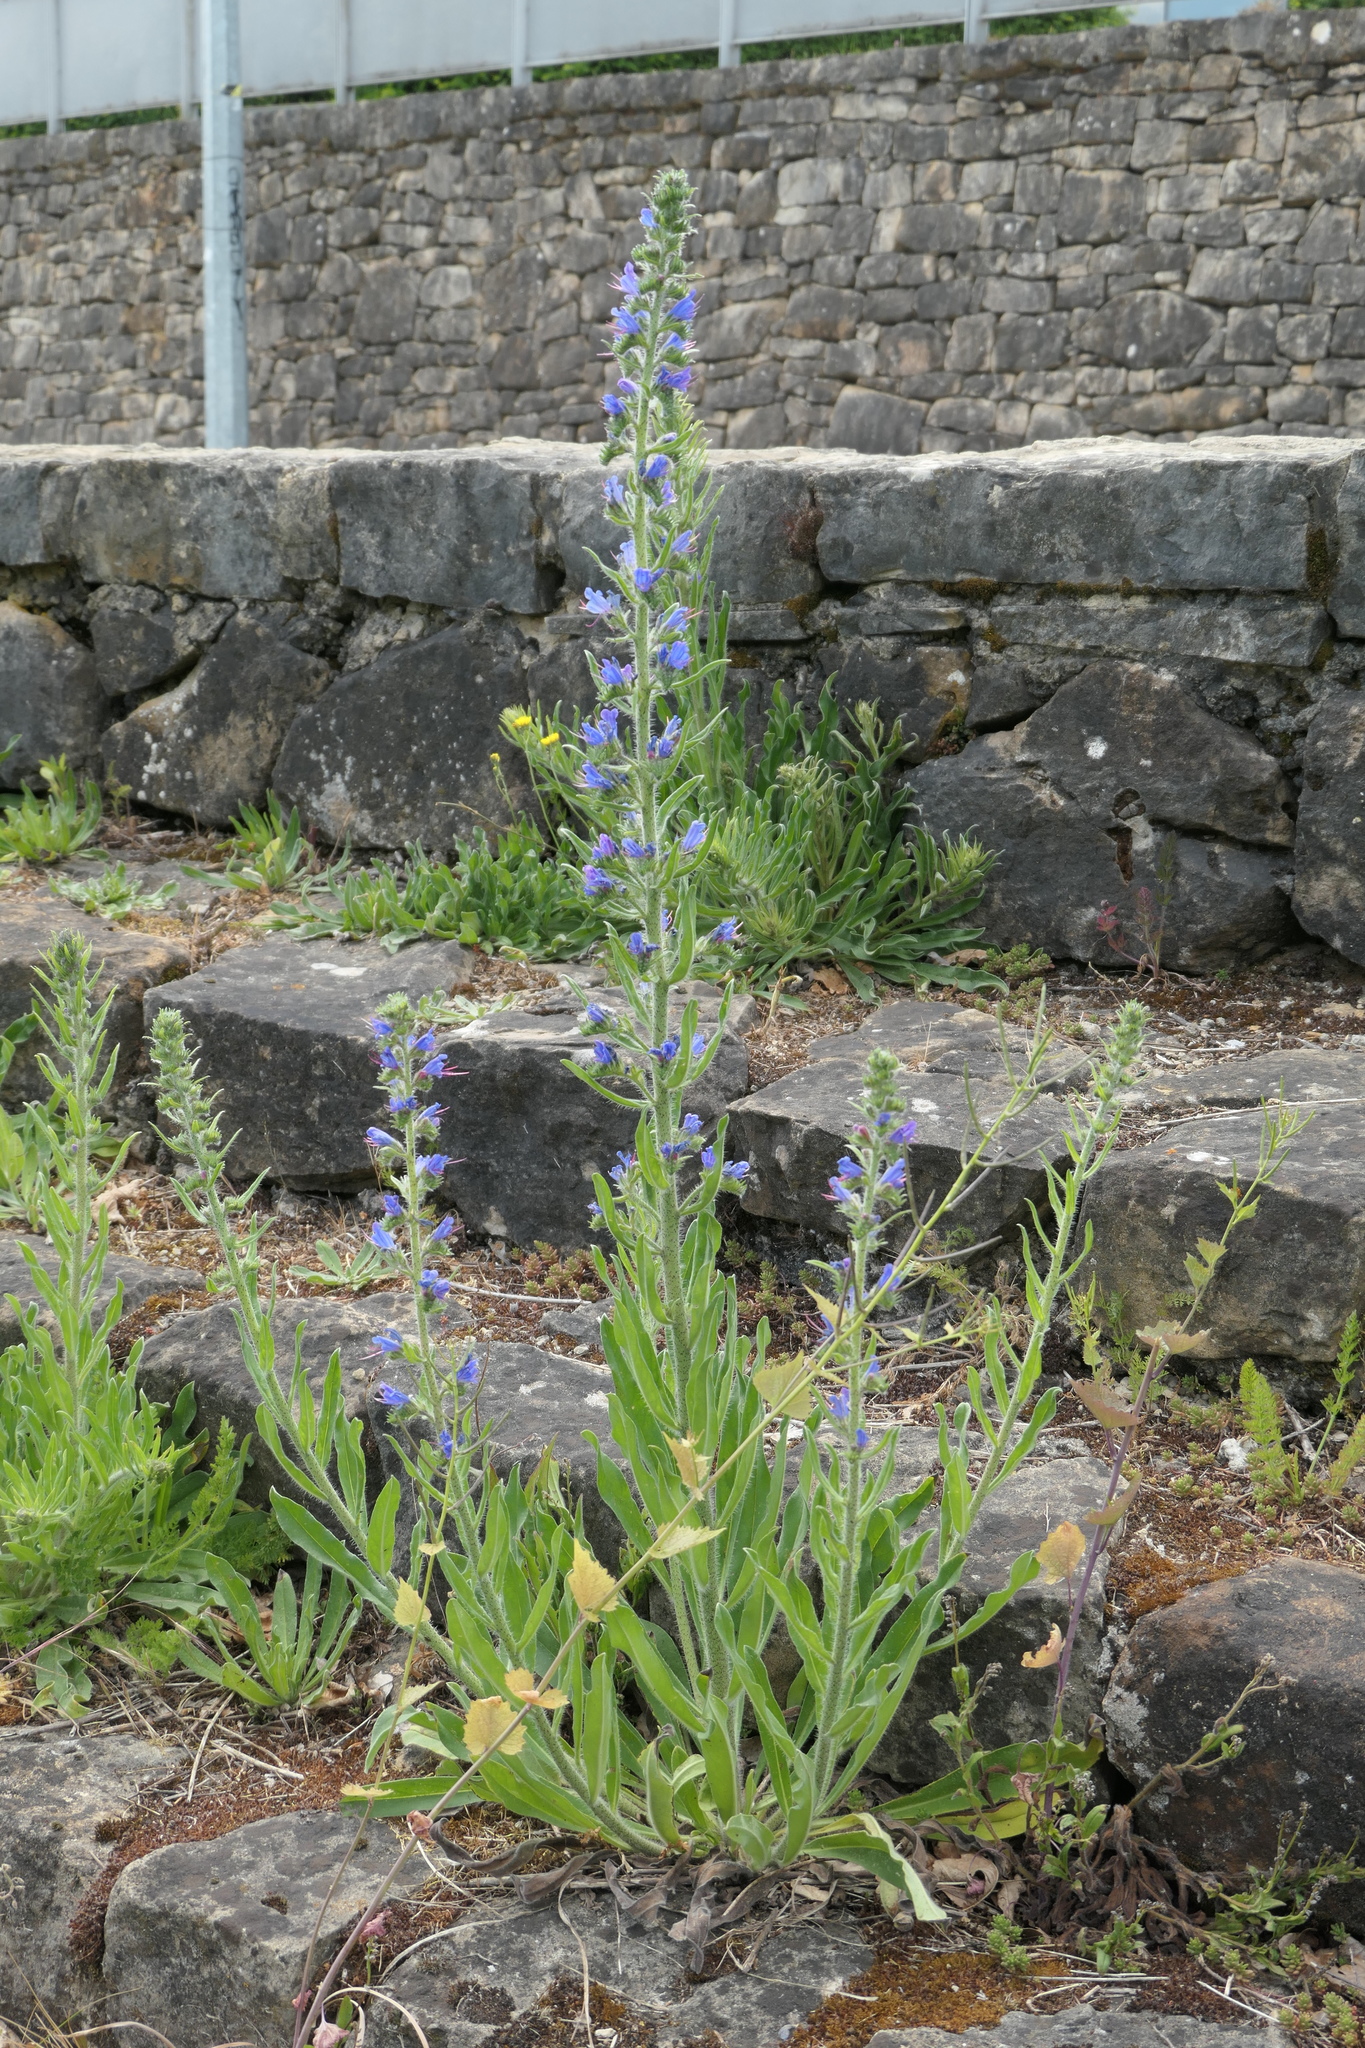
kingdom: Plantae
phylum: Tracheophyta
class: Magnoliopsida
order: Boraginales
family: Boraginaceae
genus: Echium
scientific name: Echium vulgare
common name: Common viper's bugloss
